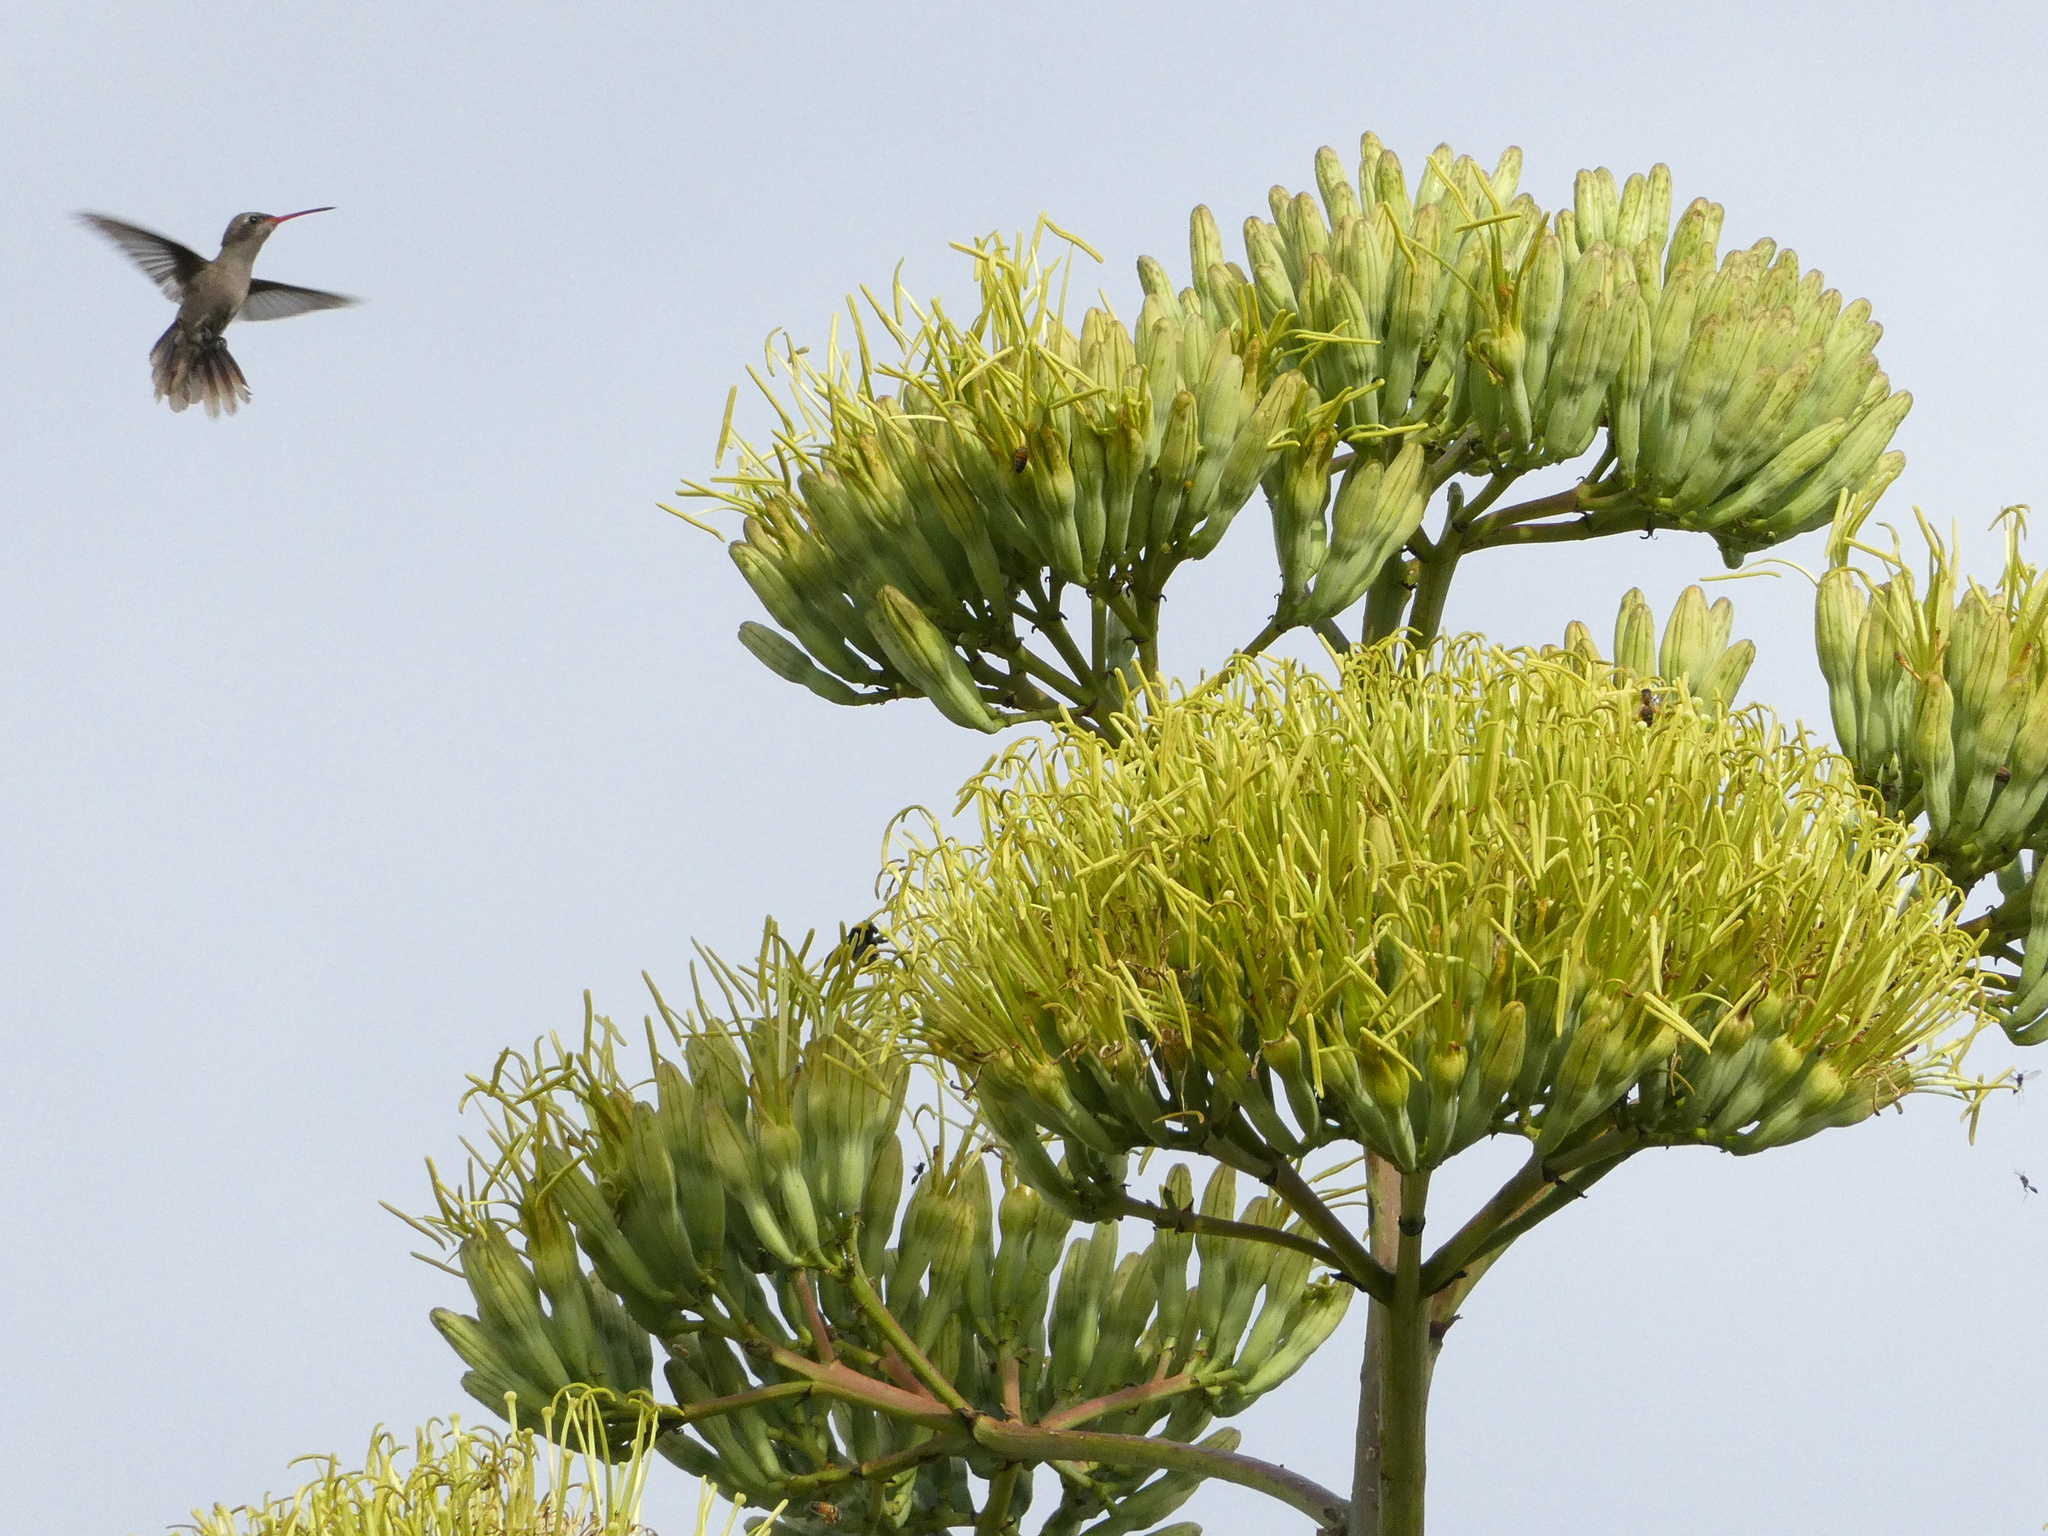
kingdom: Animalia
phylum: Chordata
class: Aves
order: Apodiformes
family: Trochilidae
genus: Phaeoptila
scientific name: Phaeoptila sordida
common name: Dusky hummingbird
